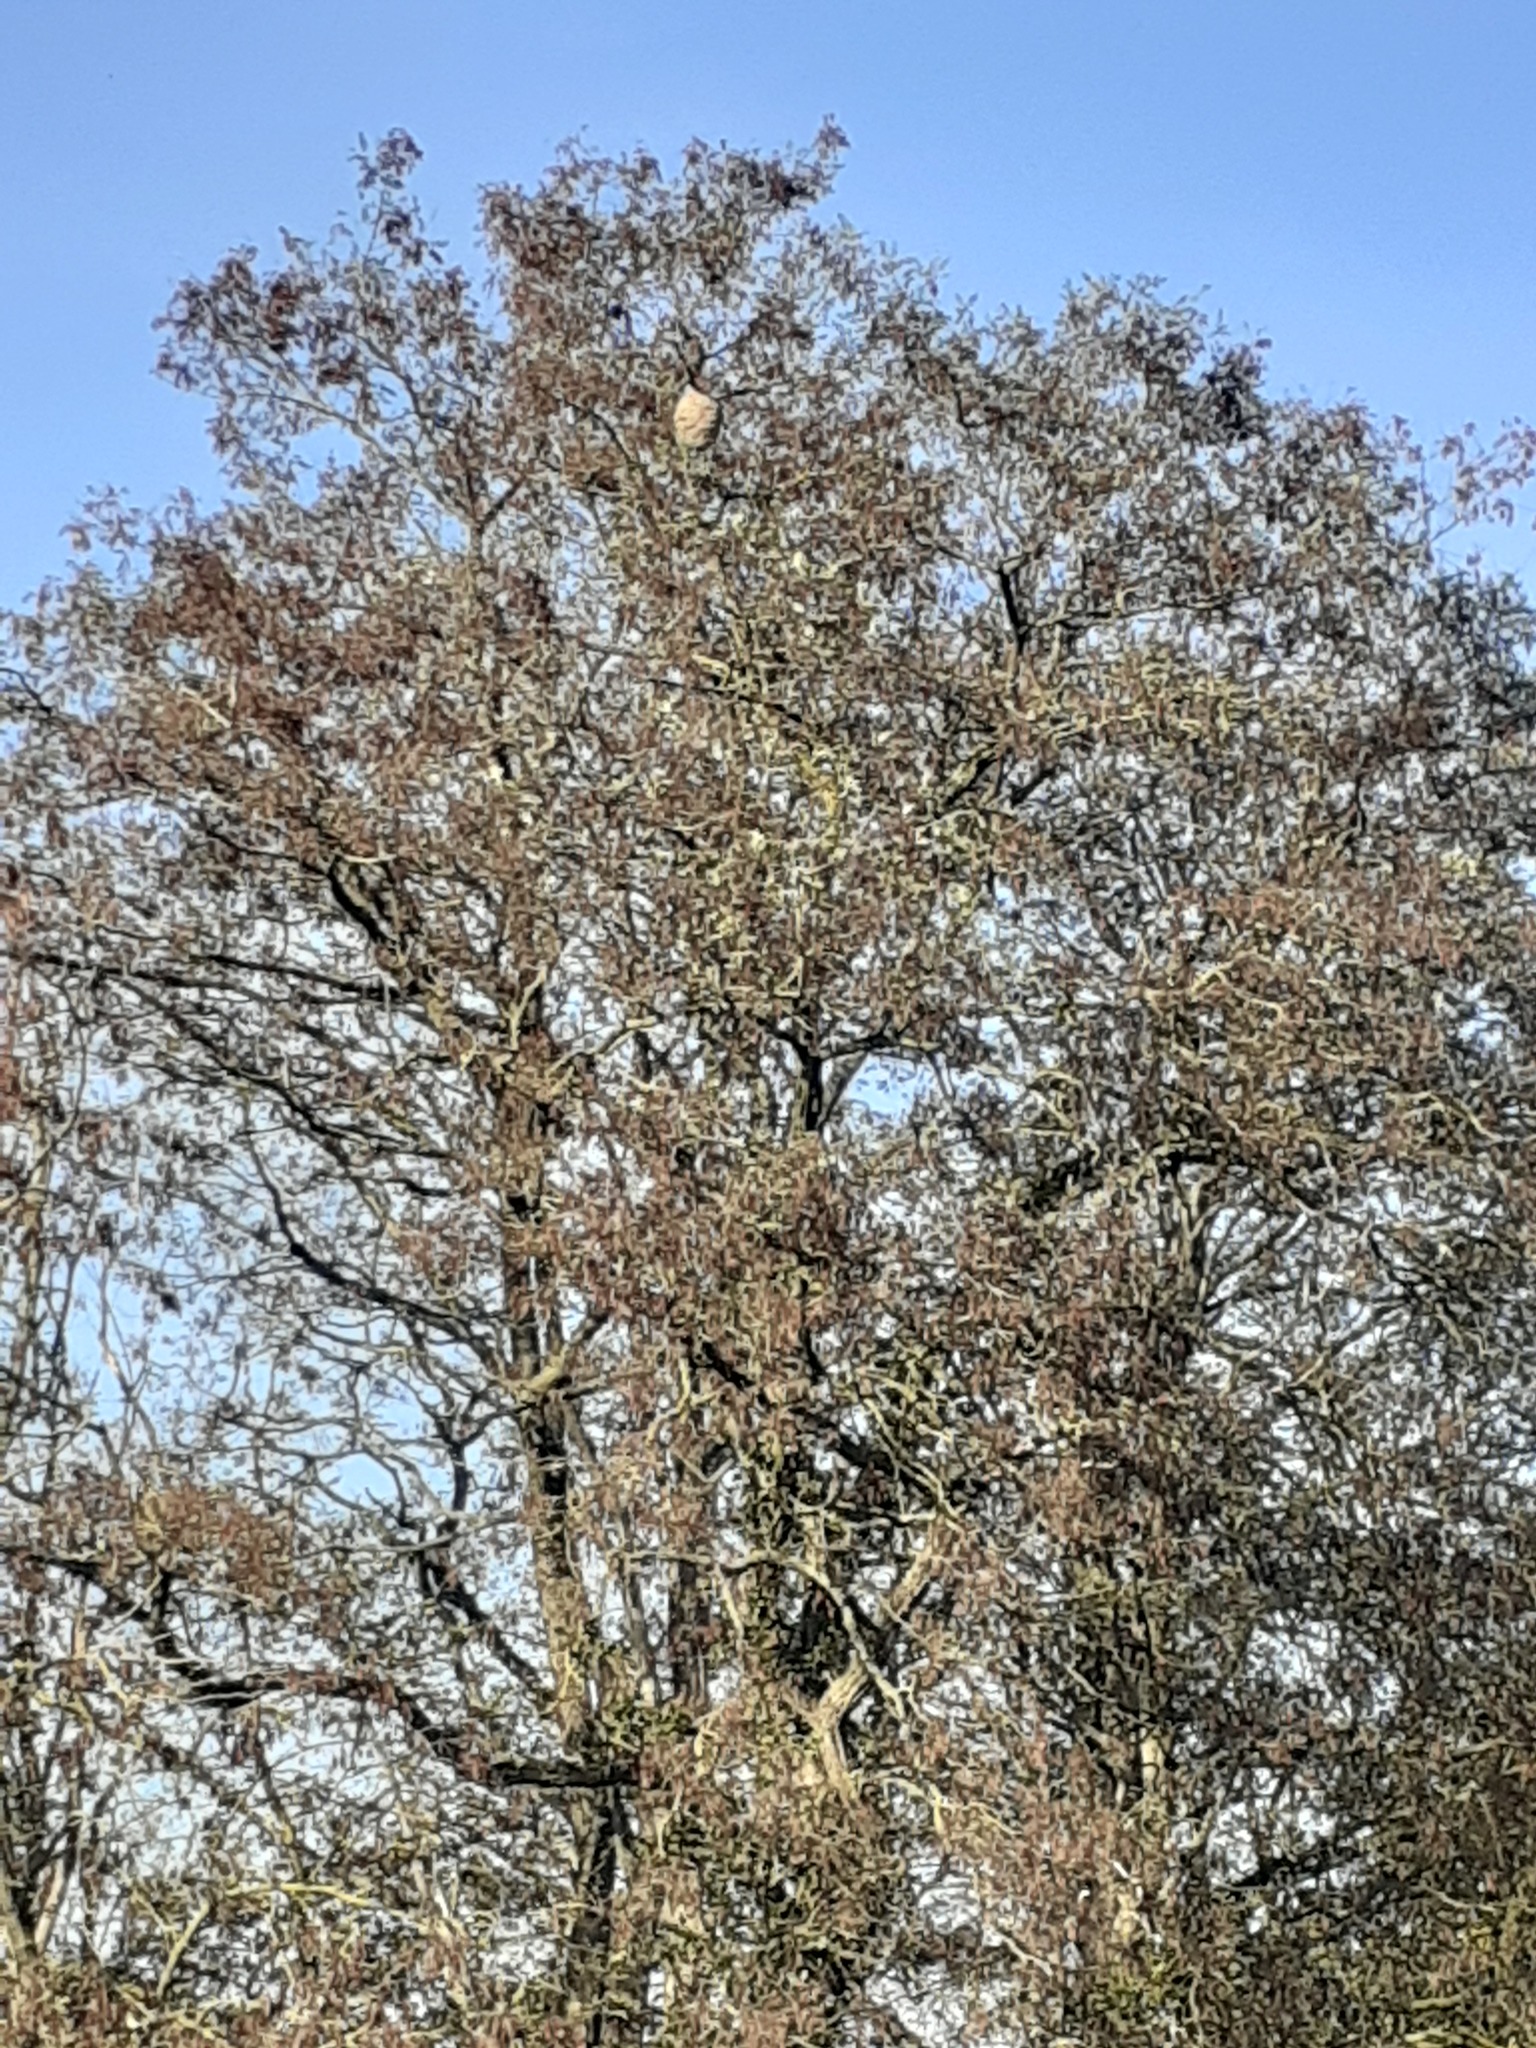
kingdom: Animalia
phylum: Arthropoda
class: Insecta
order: Hymenoptera
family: Vespidae
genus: Vespa
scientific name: Vespa velutina
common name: Asian hornet
